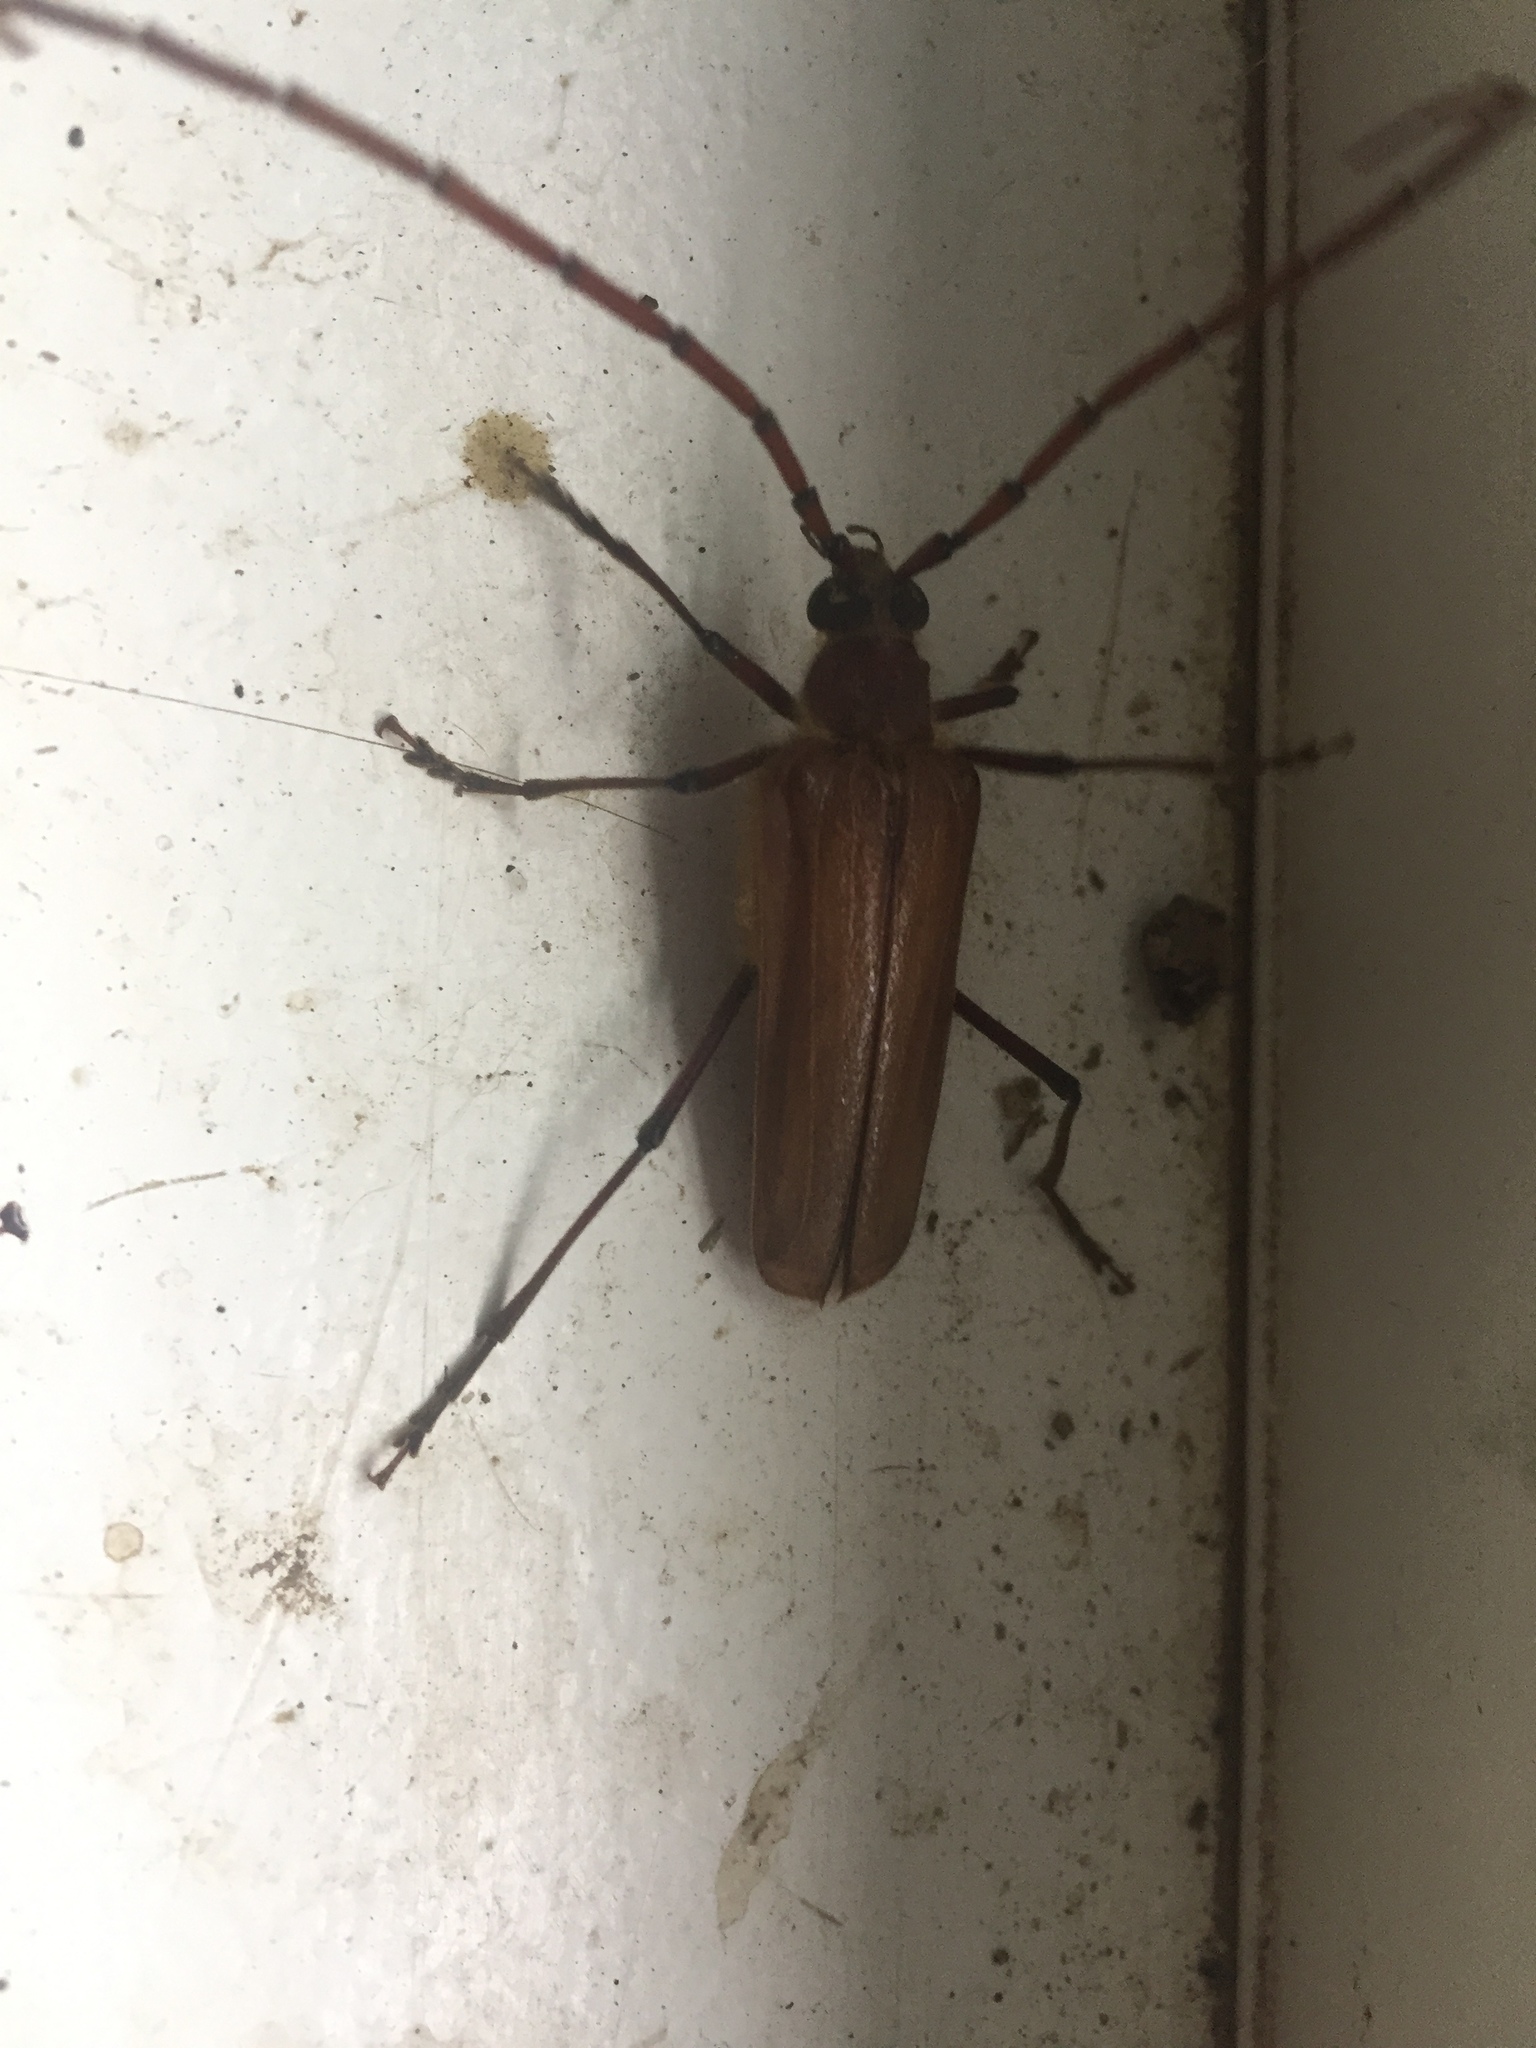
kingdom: Animalia
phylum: Arthropoda
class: Insecta
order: Coleoptera
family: Cerambycidae
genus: Ochrocydus
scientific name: Ochrocydus huttoni
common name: Kanuka longhorn
